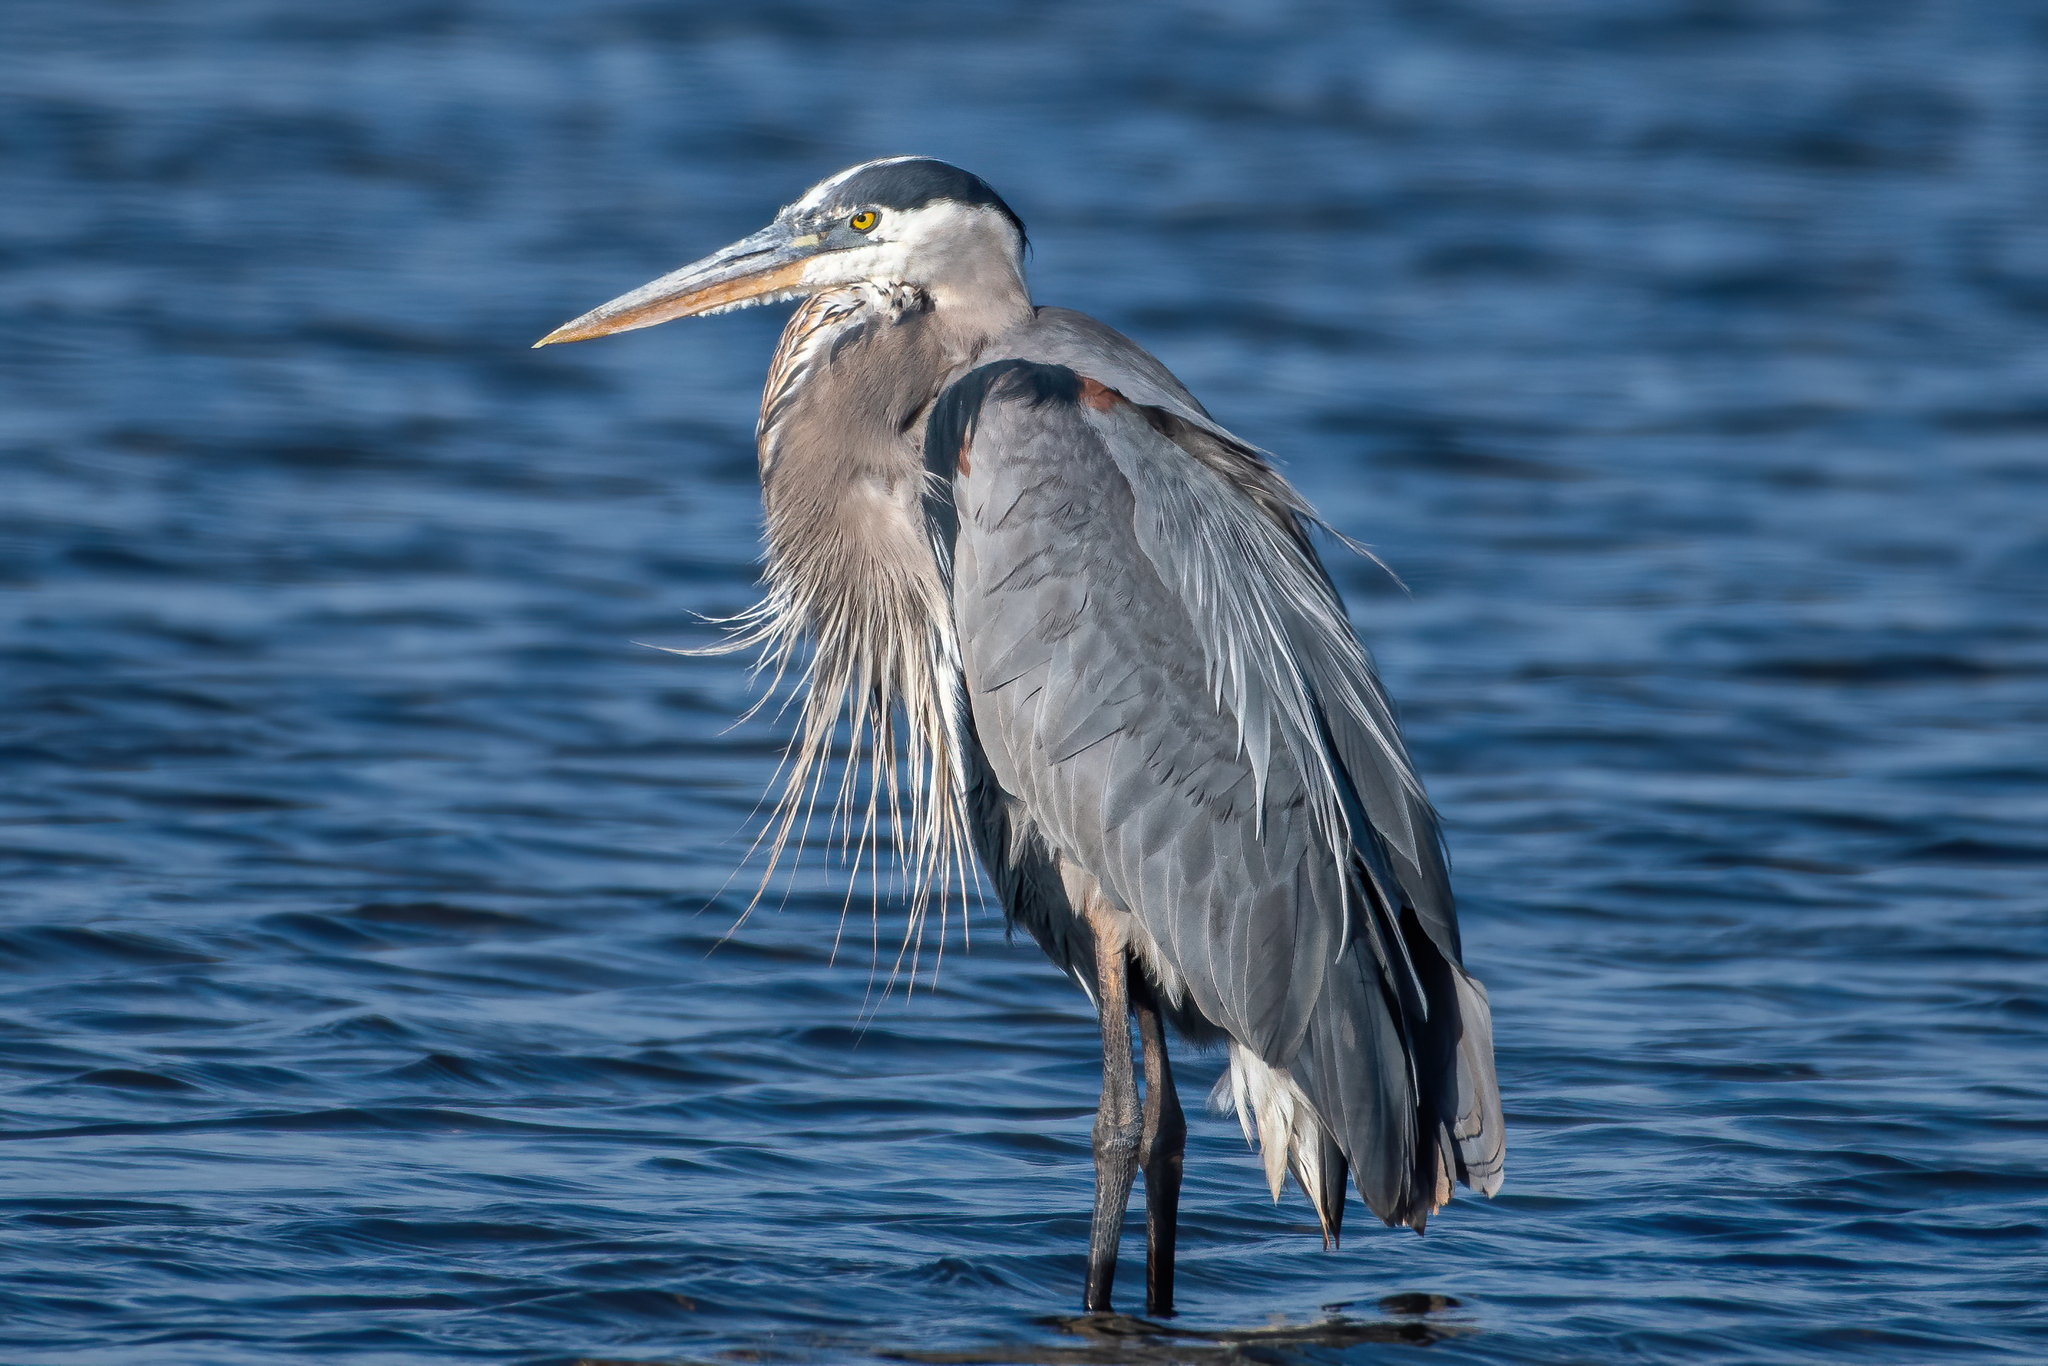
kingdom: Animalia
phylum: Chordata
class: Aves
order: Pelecaniformes
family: Ardeidae
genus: Ardea
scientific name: Ardea herodias
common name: Great blue heron
